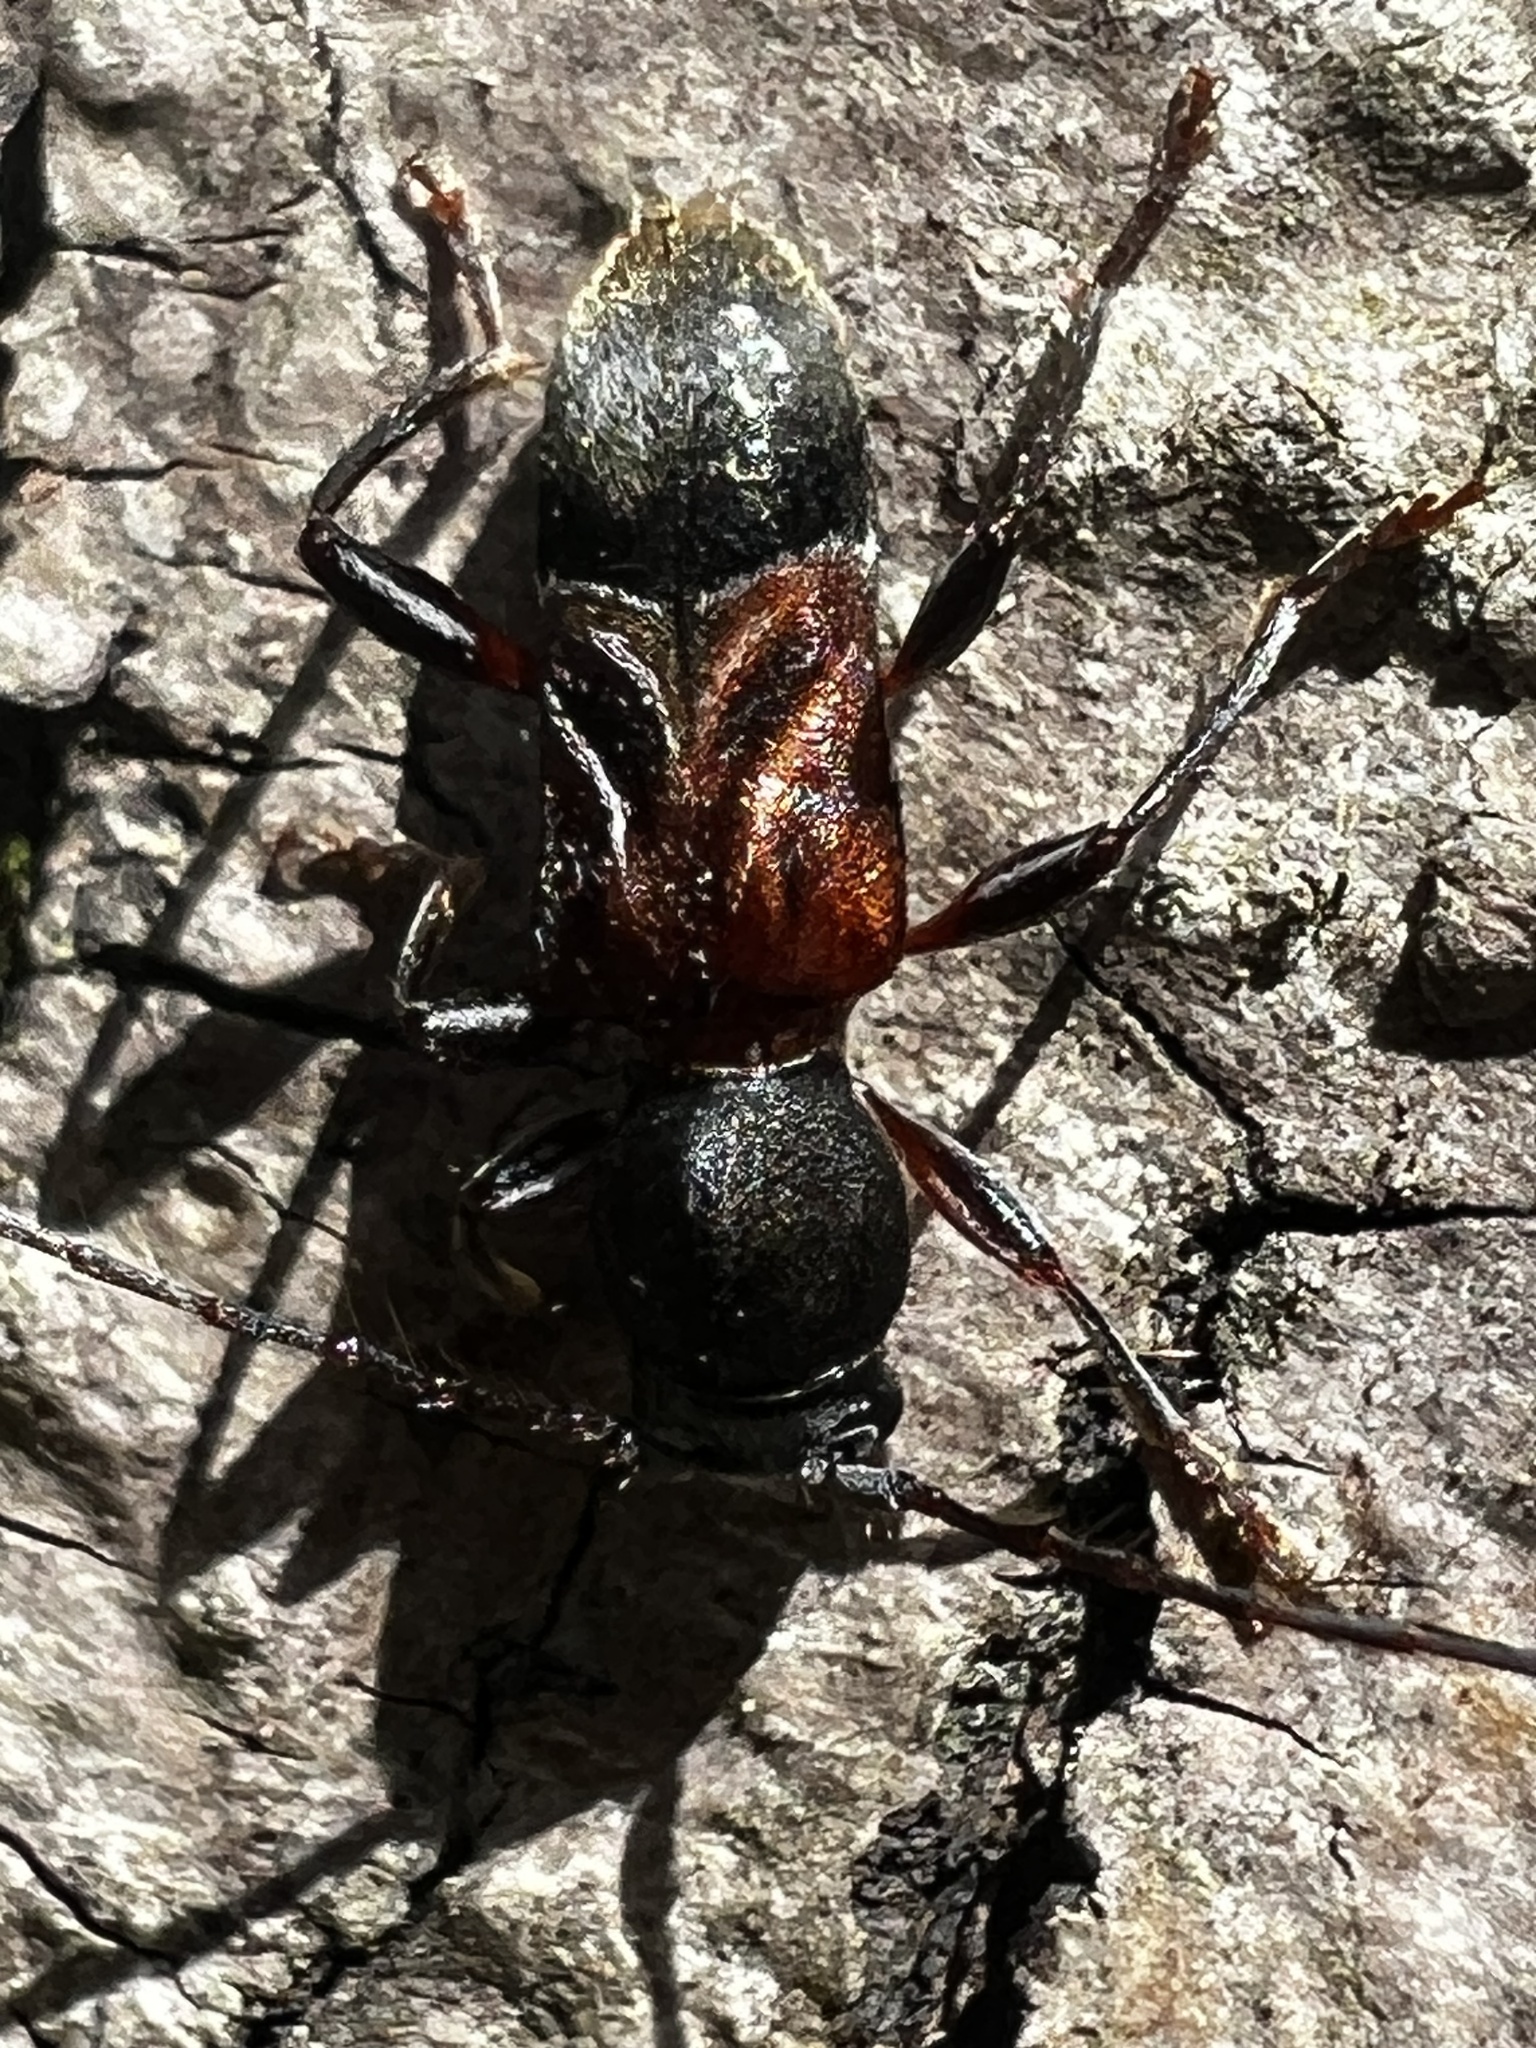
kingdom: Animalia
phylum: Arthropoda
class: Insecta
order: Coleoptera
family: Cerambycidae
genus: Cyrtophorus
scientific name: Cyrtophorus verrucosus
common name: Ant-like longhorn beetle
